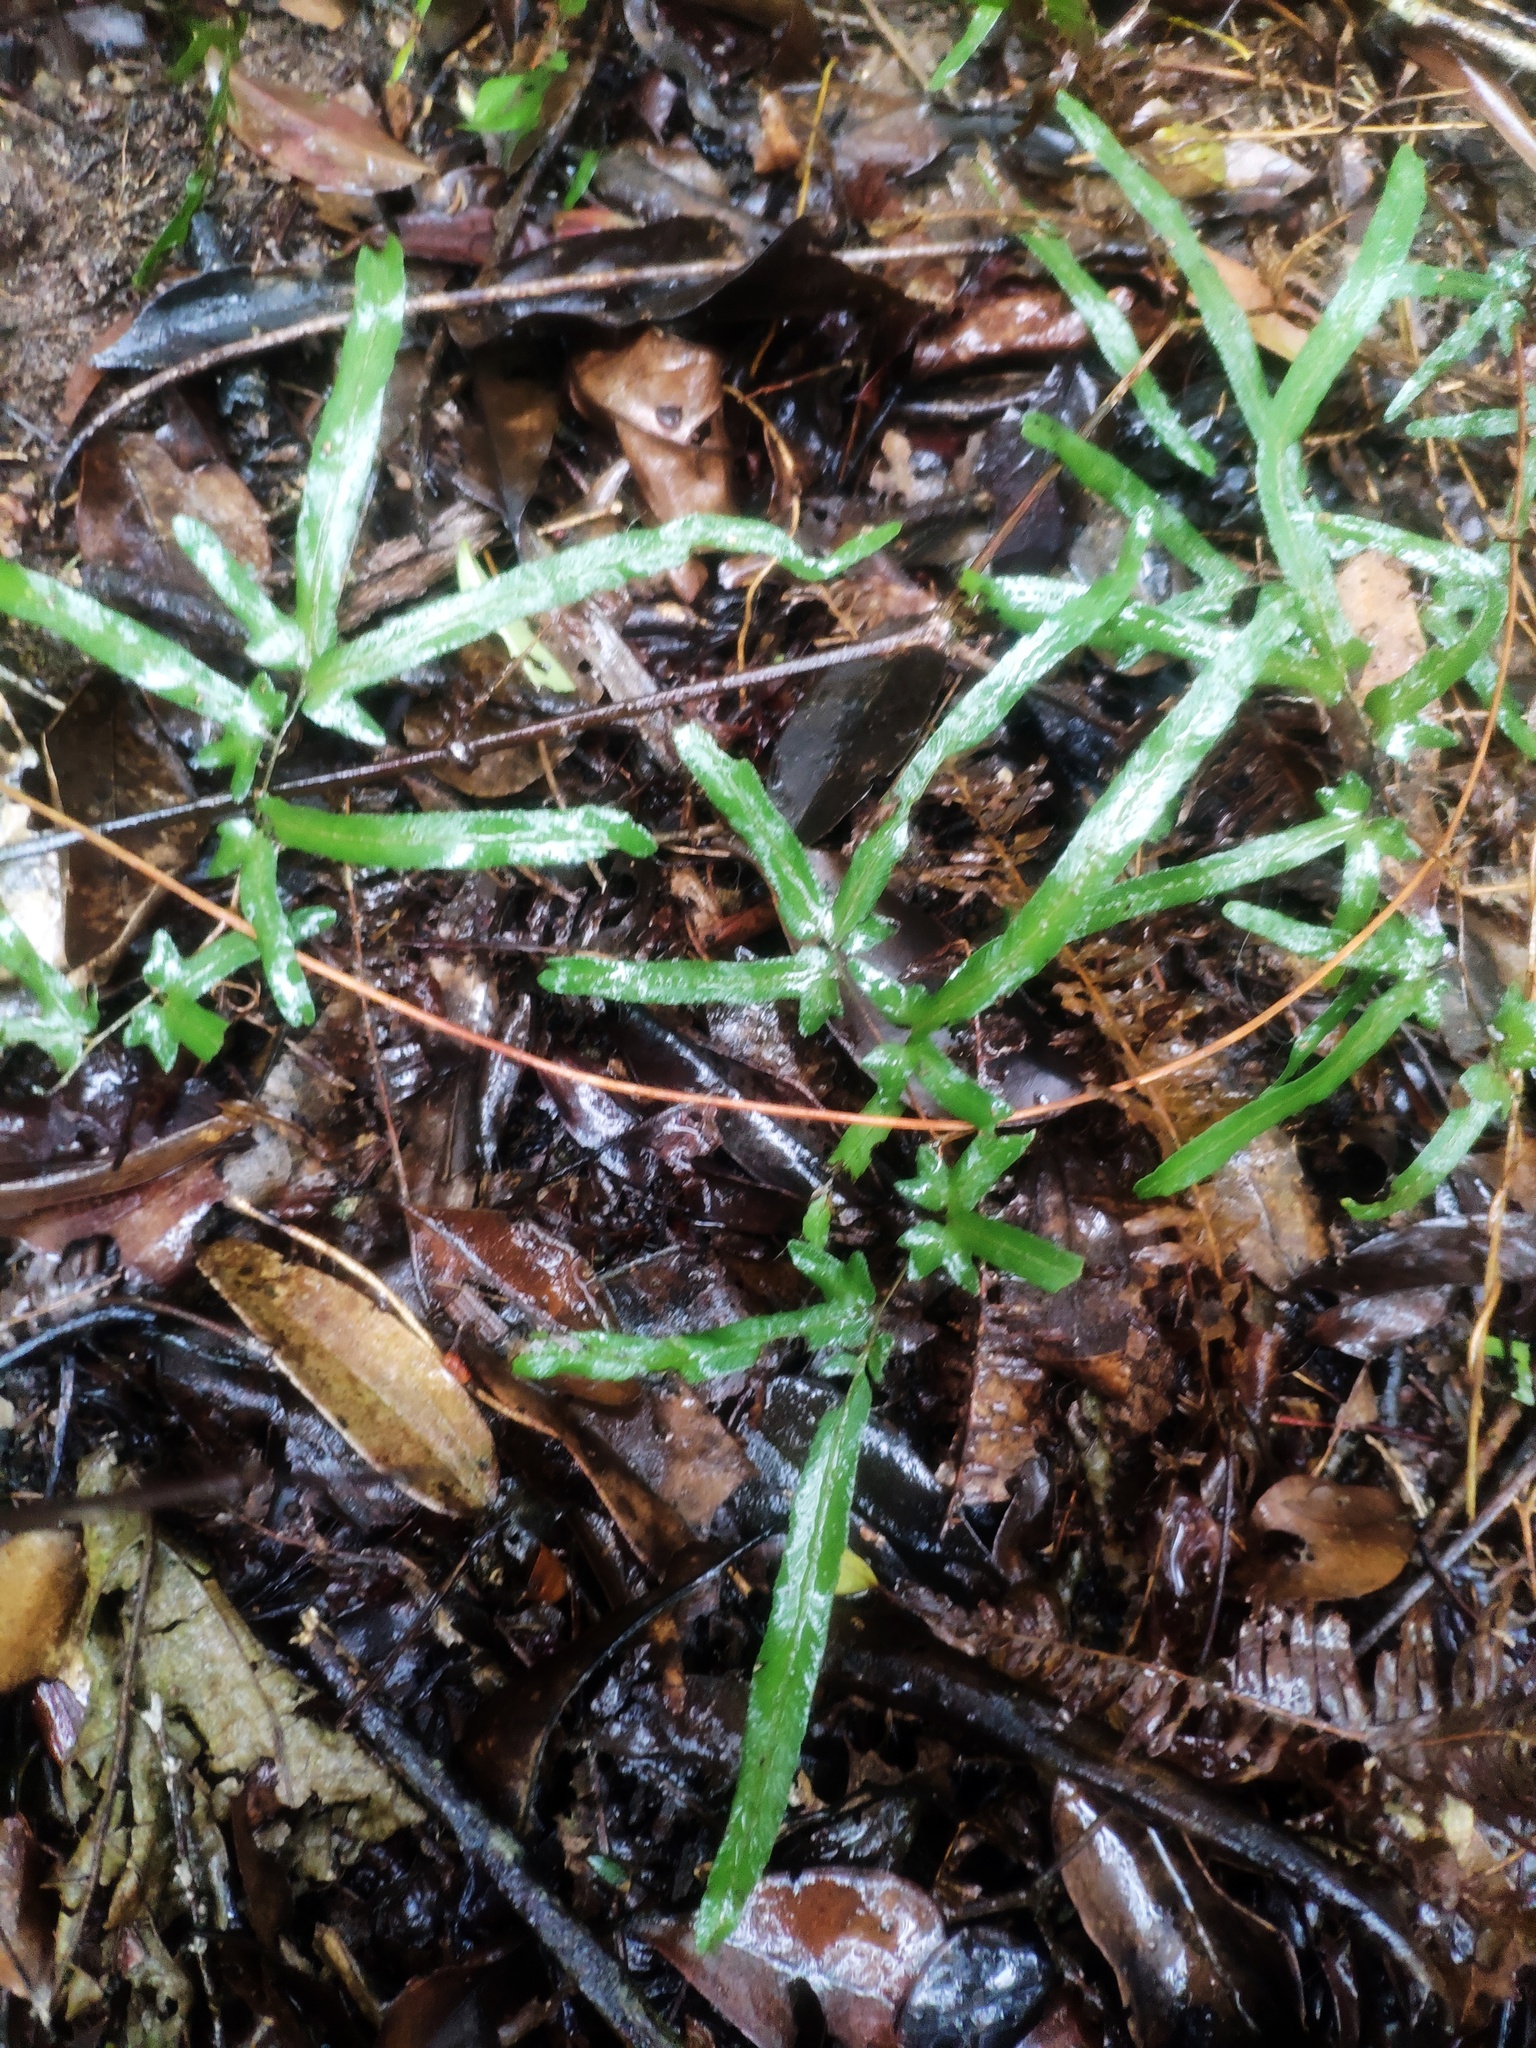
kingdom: Plantae
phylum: Tracheophyta
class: Polypodiopsida
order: Schizaeales
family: Lygodiaceae
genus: Lygodium
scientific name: Lygodium japonicum
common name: Japanese climbing fern
